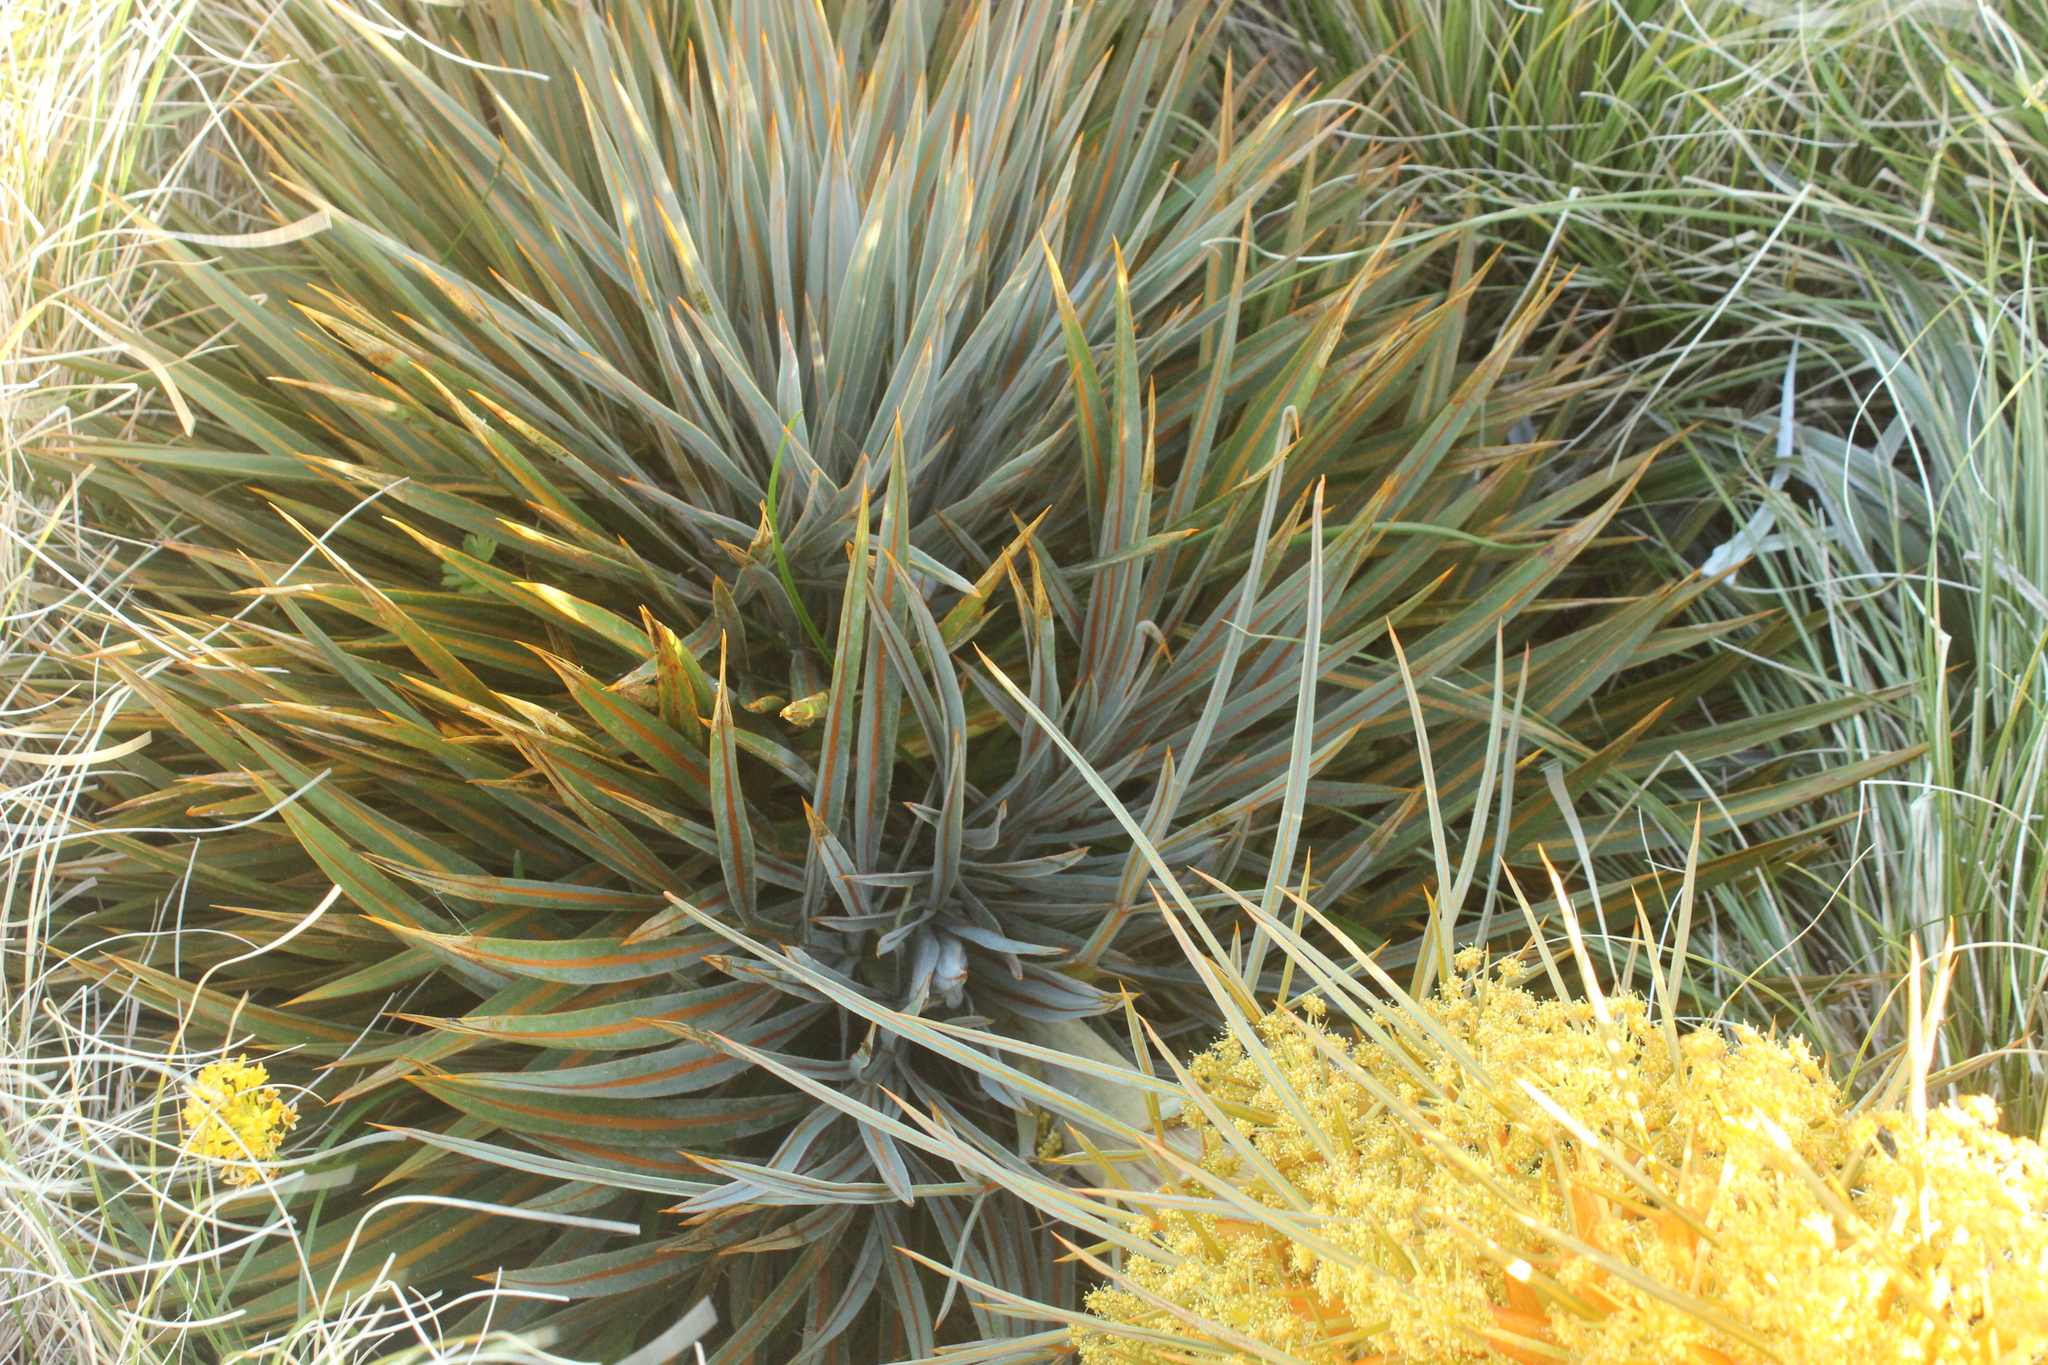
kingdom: Plantae
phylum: Tracheophyta
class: Magnoliopsida
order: Apiales
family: Apiaceae
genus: Aciphylla
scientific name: Aciphylla colensoi
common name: Colenso's spaniard
